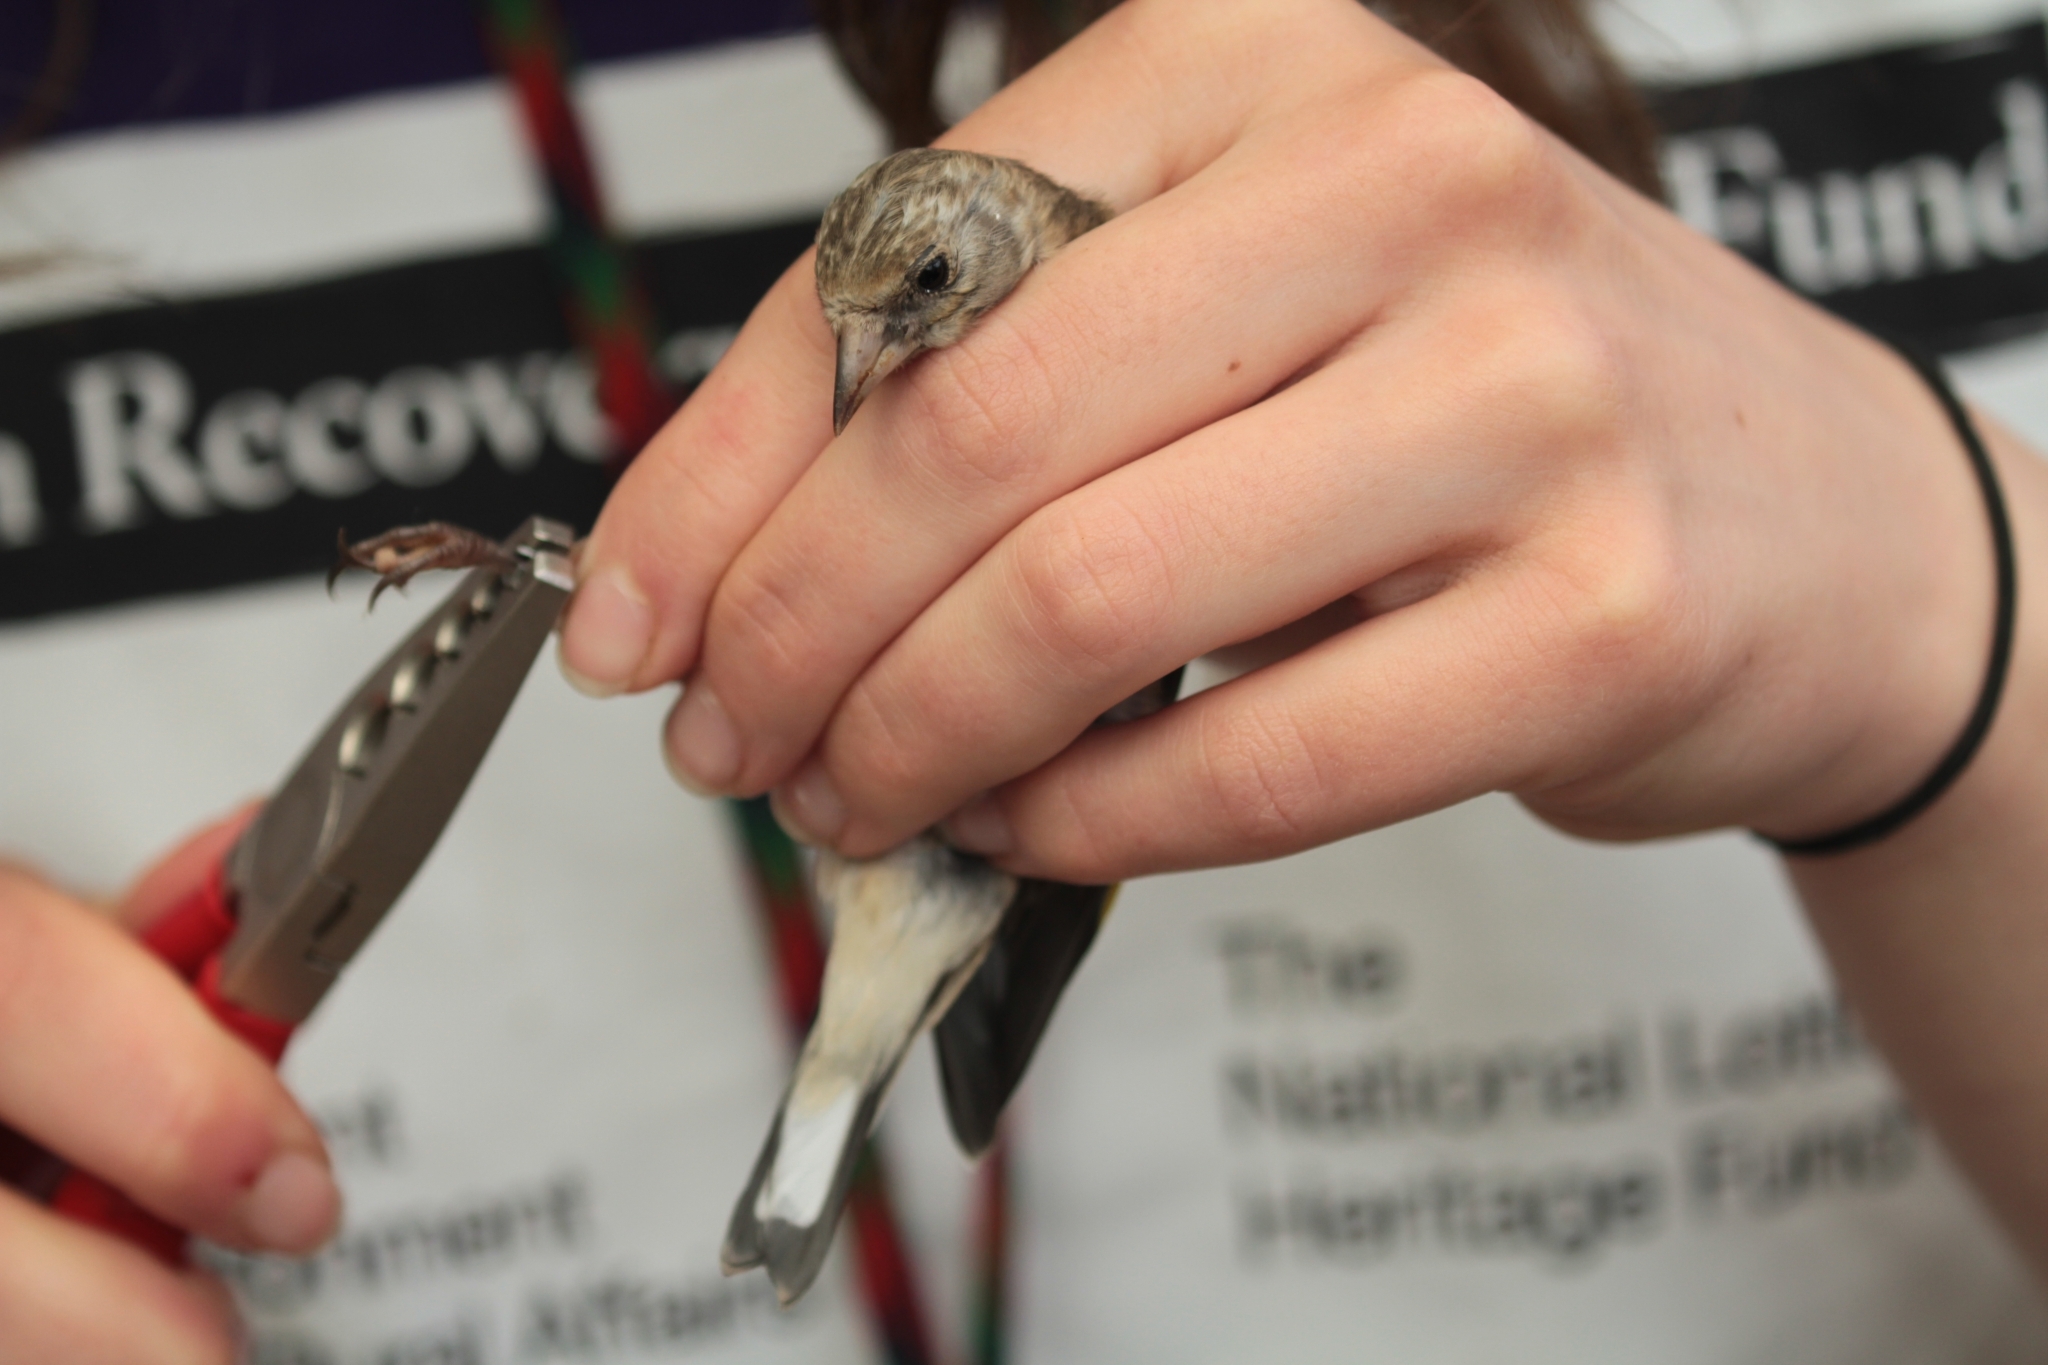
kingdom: Animalia
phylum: Chordata
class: Aves
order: Passeriformes
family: Fringillidae
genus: Carduelis
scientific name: Carduelis carduelis
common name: European goldfinch
